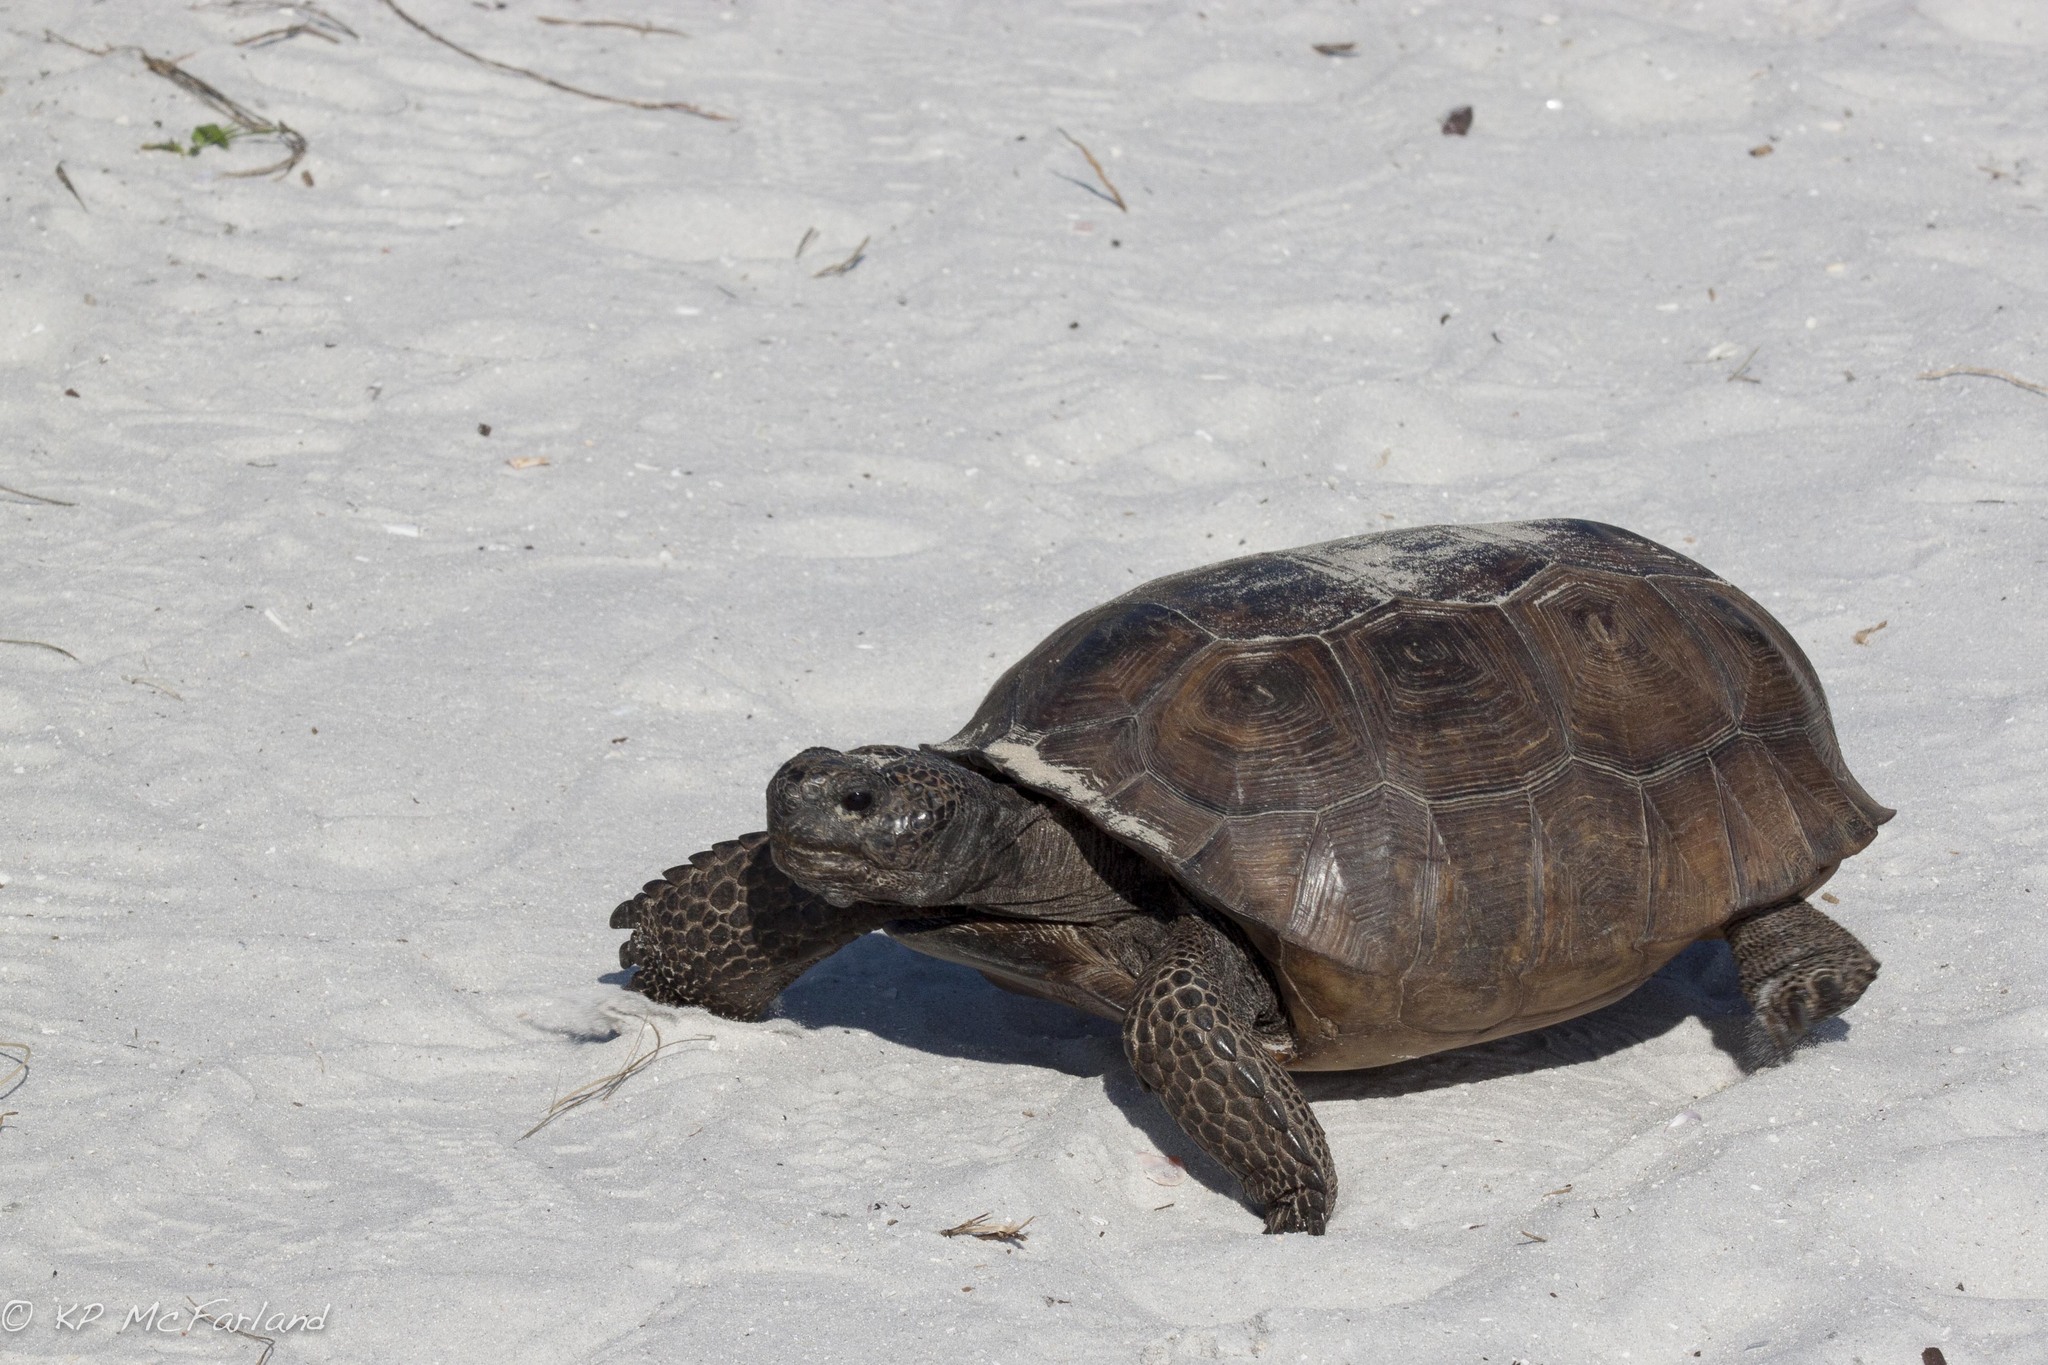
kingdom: Animalia
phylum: Chordata
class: Testudines
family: Testudinidae
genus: Gopherus
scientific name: Gopherus polyphemus
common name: Florida gopher tortoise
